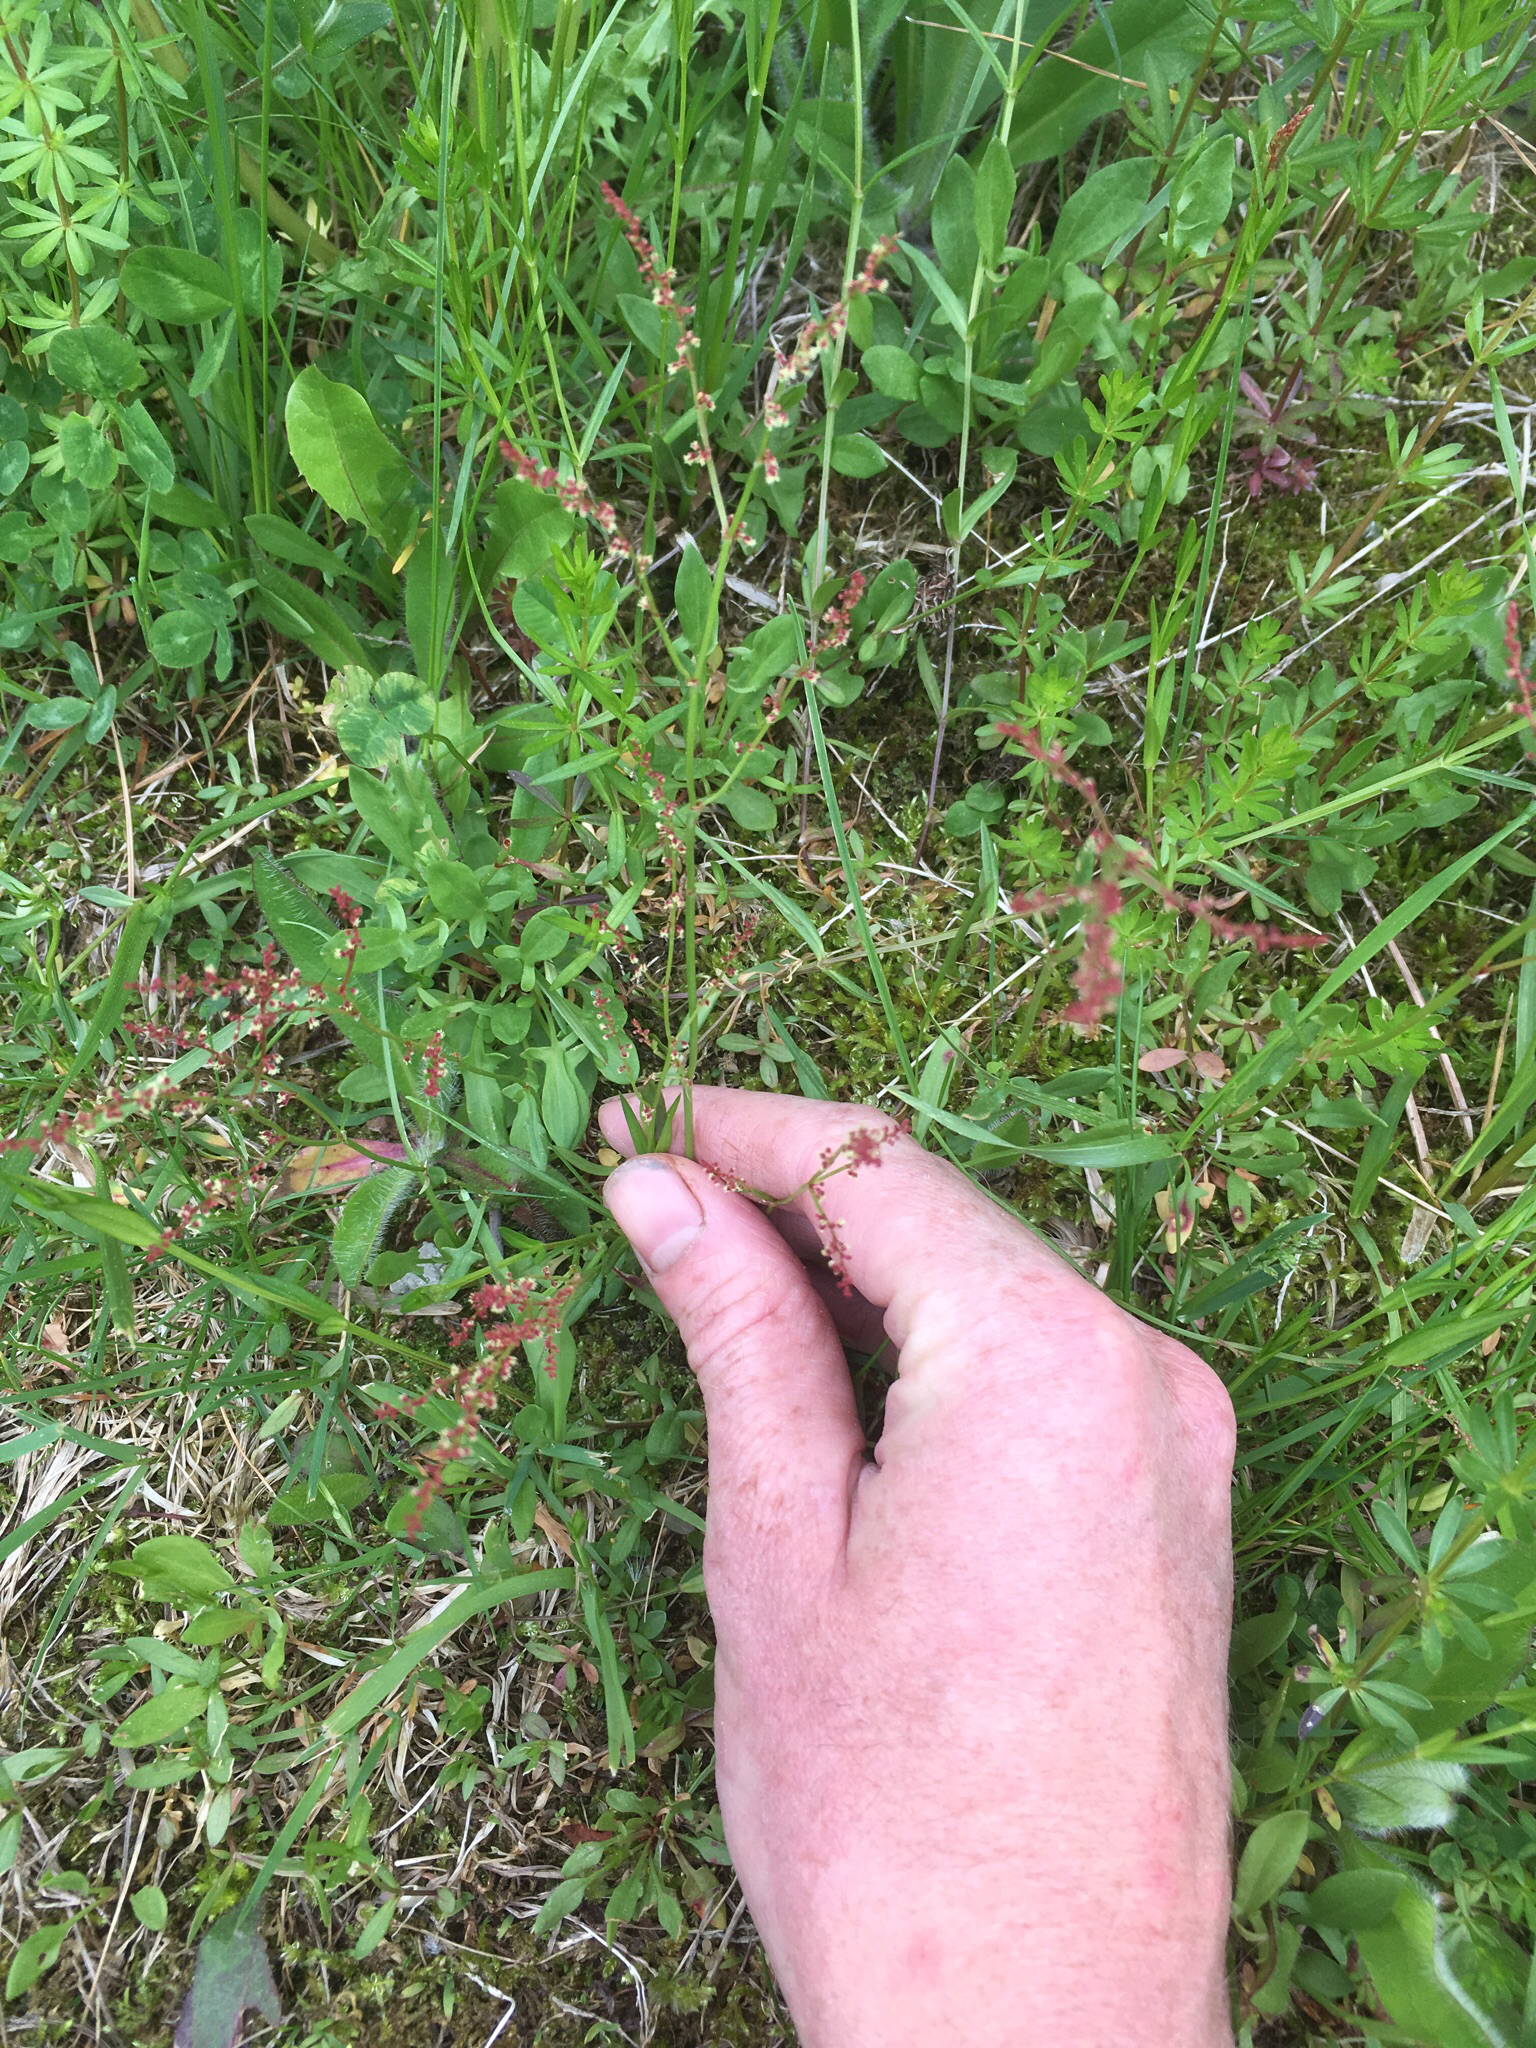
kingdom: Plantae
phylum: Tracheophyta
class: Magnoliopsida
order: Caryophyllales
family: Polygonaceae
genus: Rumex
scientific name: Rumex acetosella
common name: Common sheep sorrel
